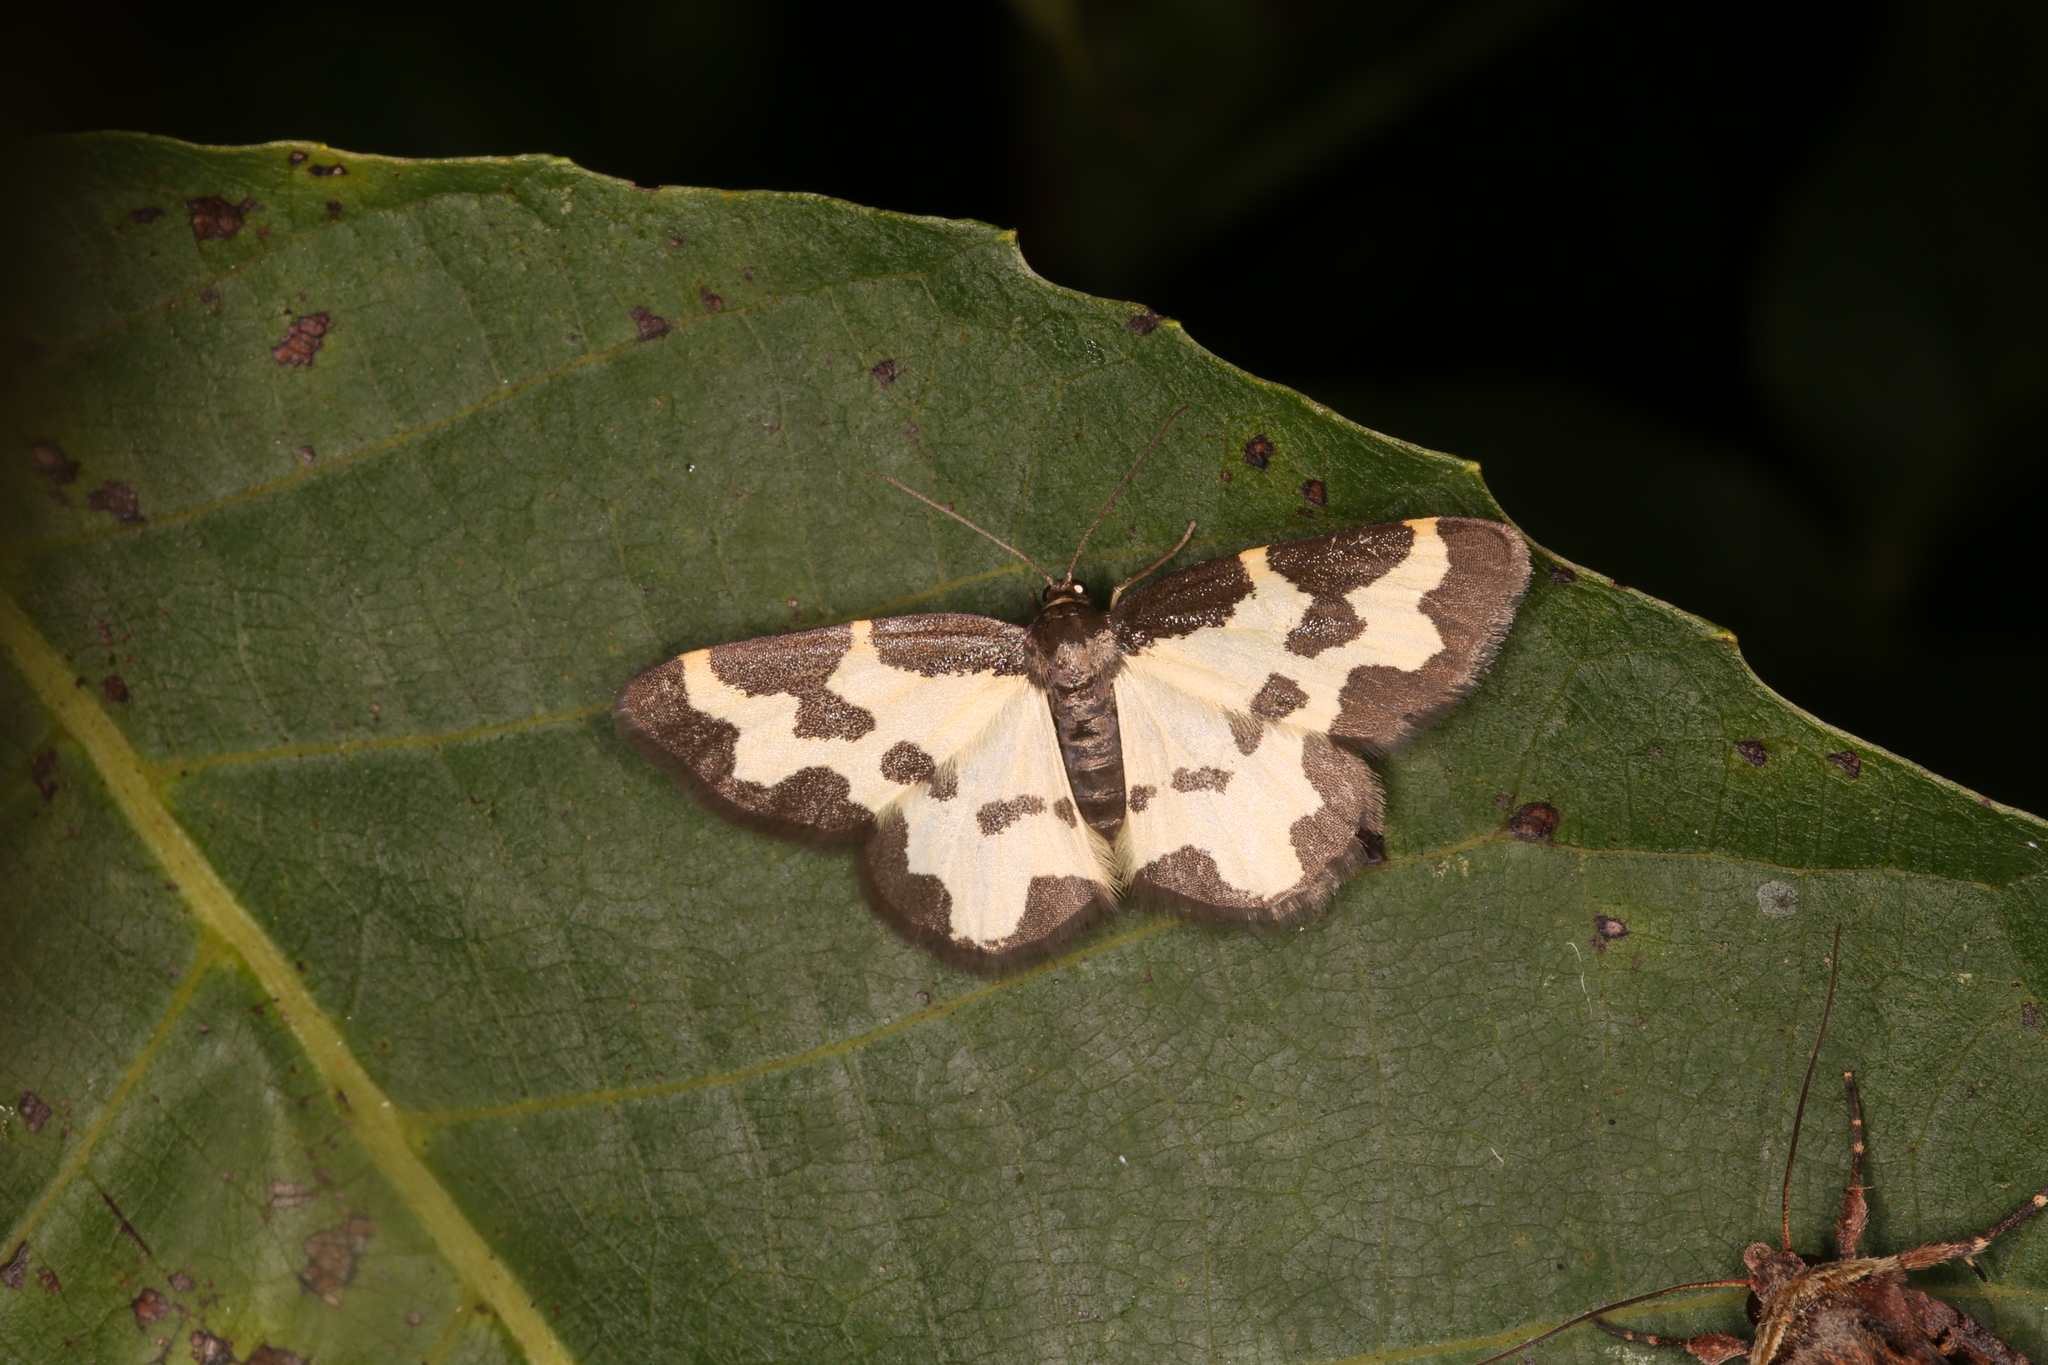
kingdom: Animalia
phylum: Arthropoda
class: Insecta
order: Lepidoptera
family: Geometridae
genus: Lomaspilis
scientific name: Lomaspilis marginata
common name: Clouded border
